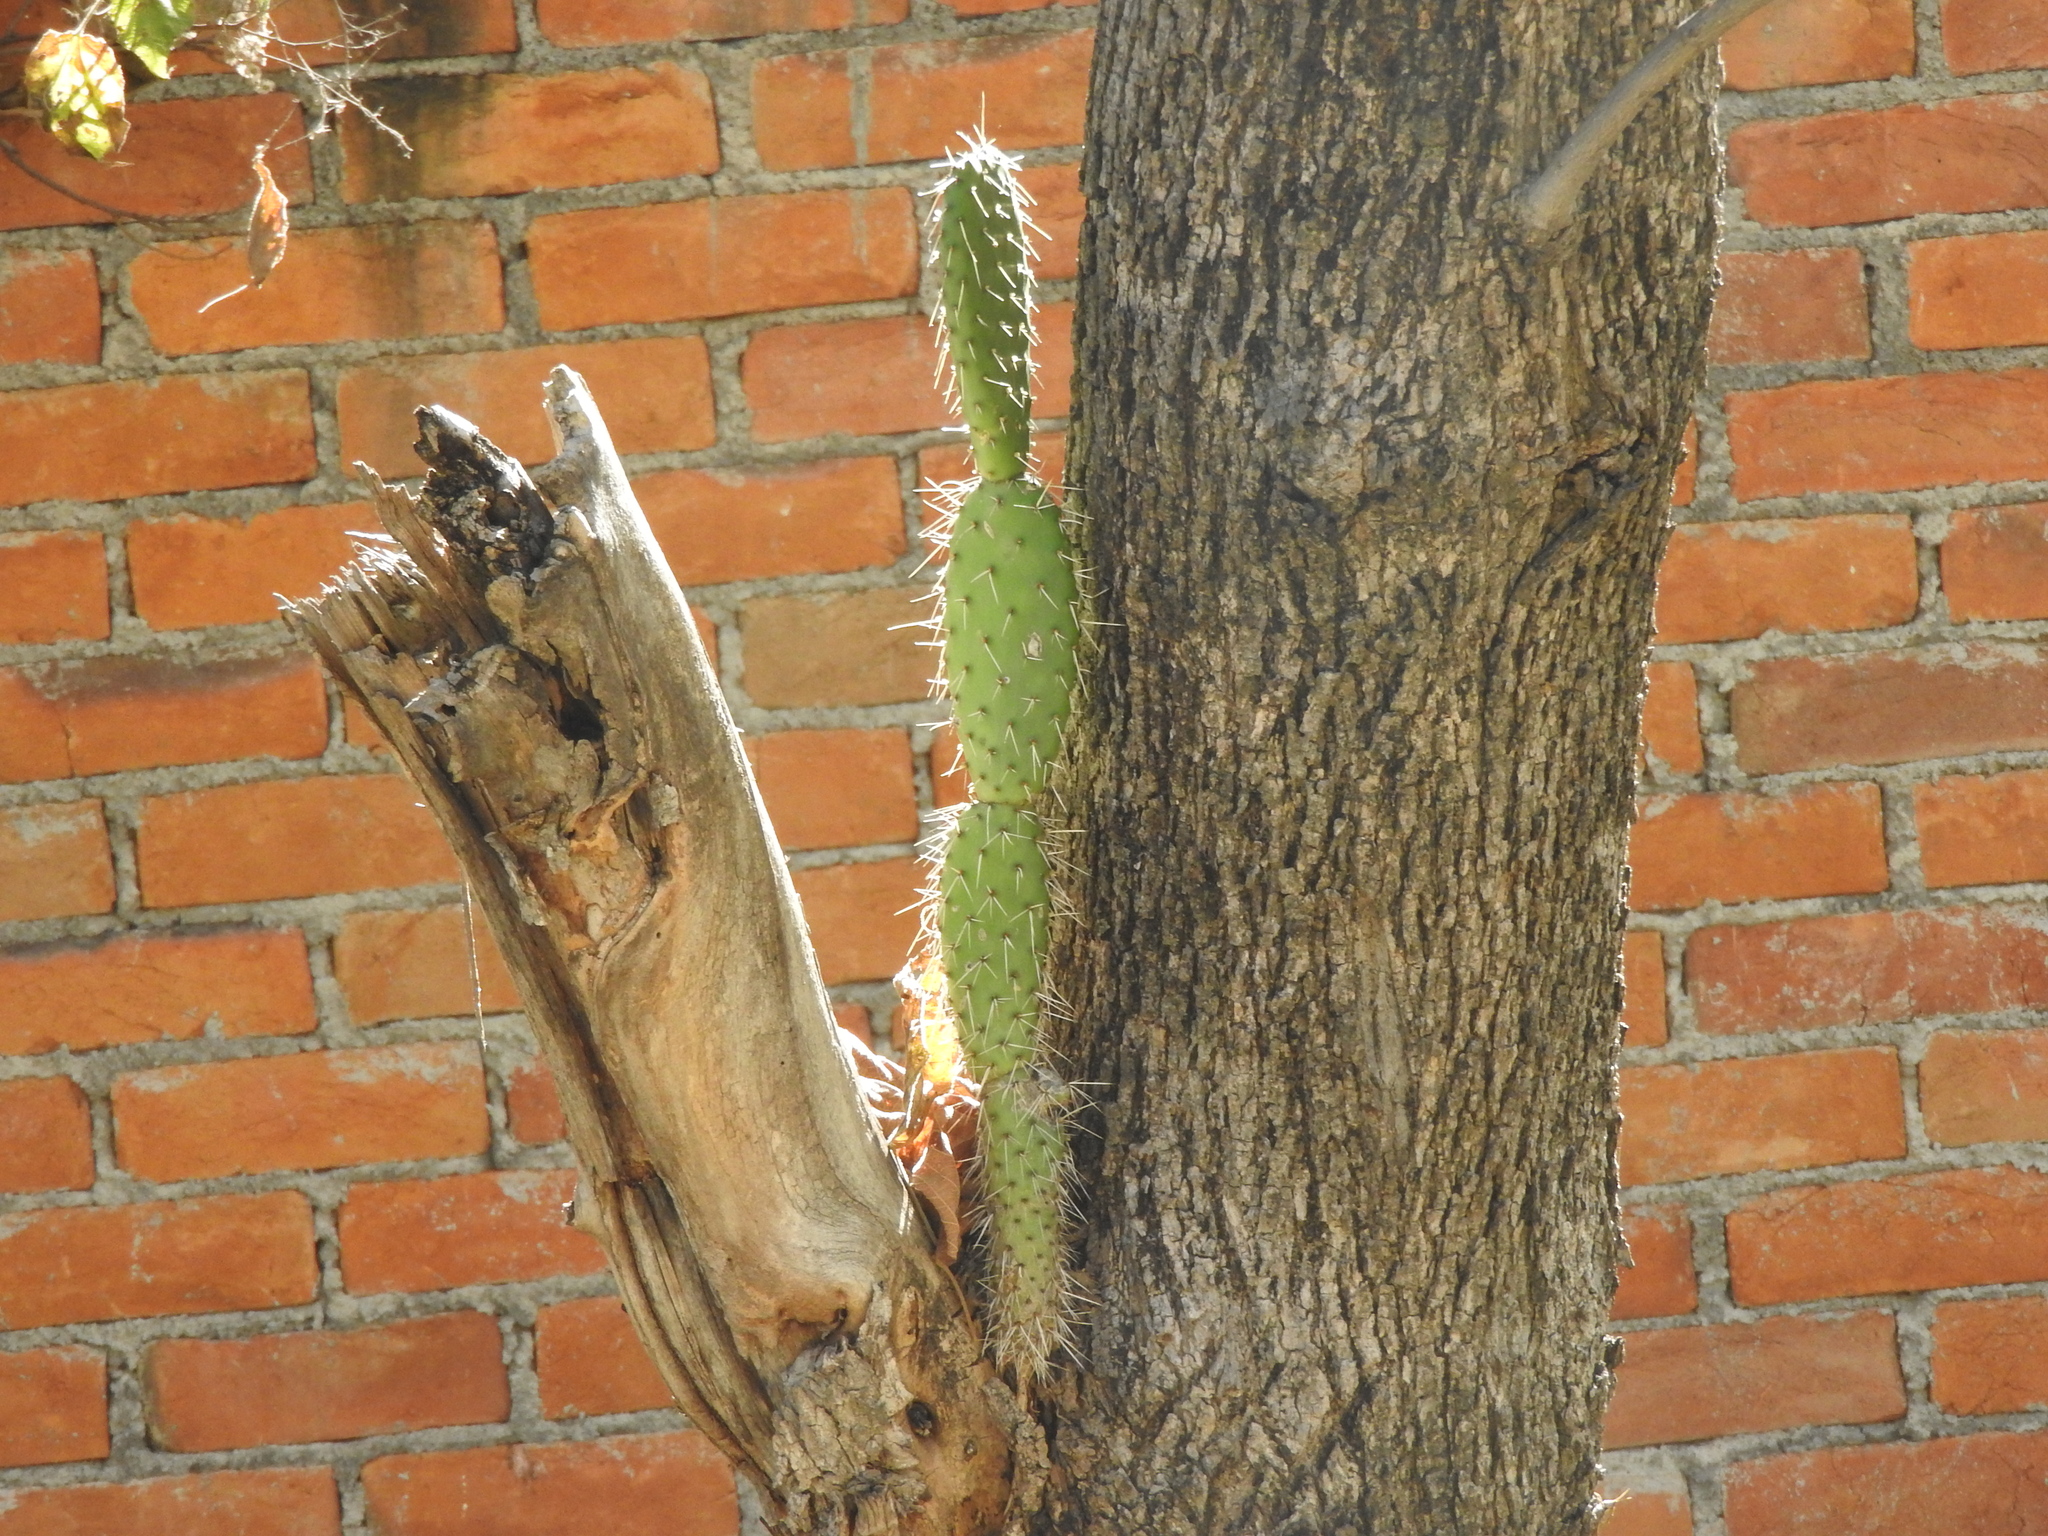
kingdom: Plantae
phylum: Tracheophyta
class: Magnoliopsida
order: Caryophyllales
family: Cactaceae
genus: Opuntia
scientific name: Opuntia ficus-indica
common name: Barbary fig
